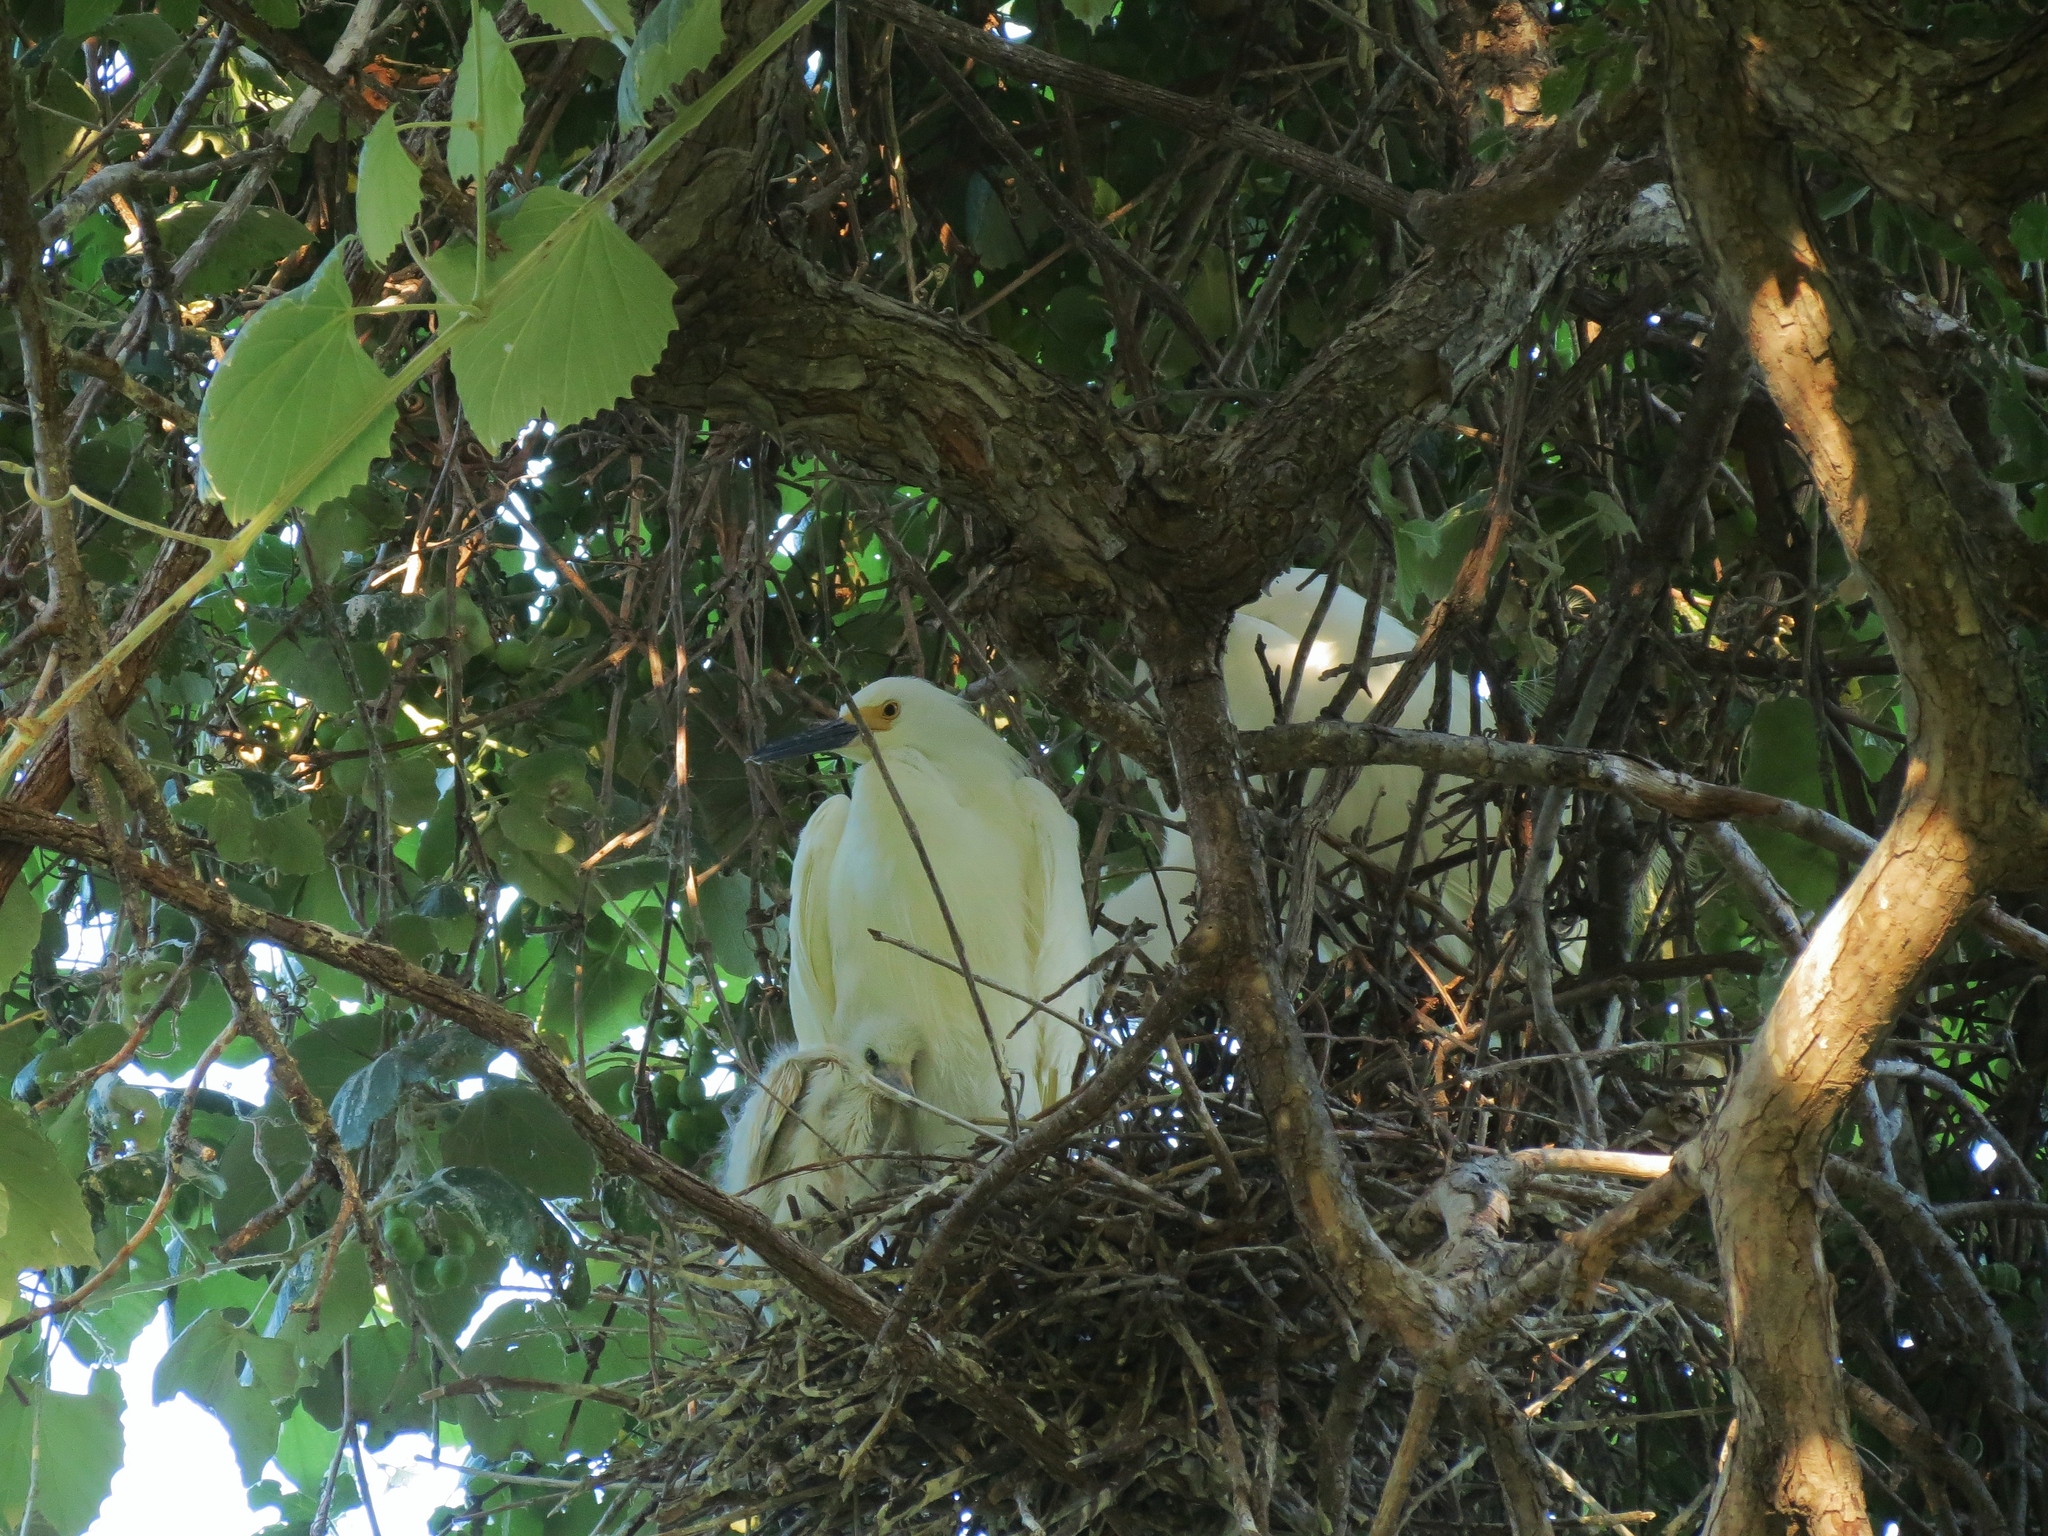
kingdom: Animalia
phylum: Chordata
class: Aves
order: Pelecaniformes
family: Ardeidae
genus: Egretta
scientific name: Egretta thula
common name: Snowy egret
